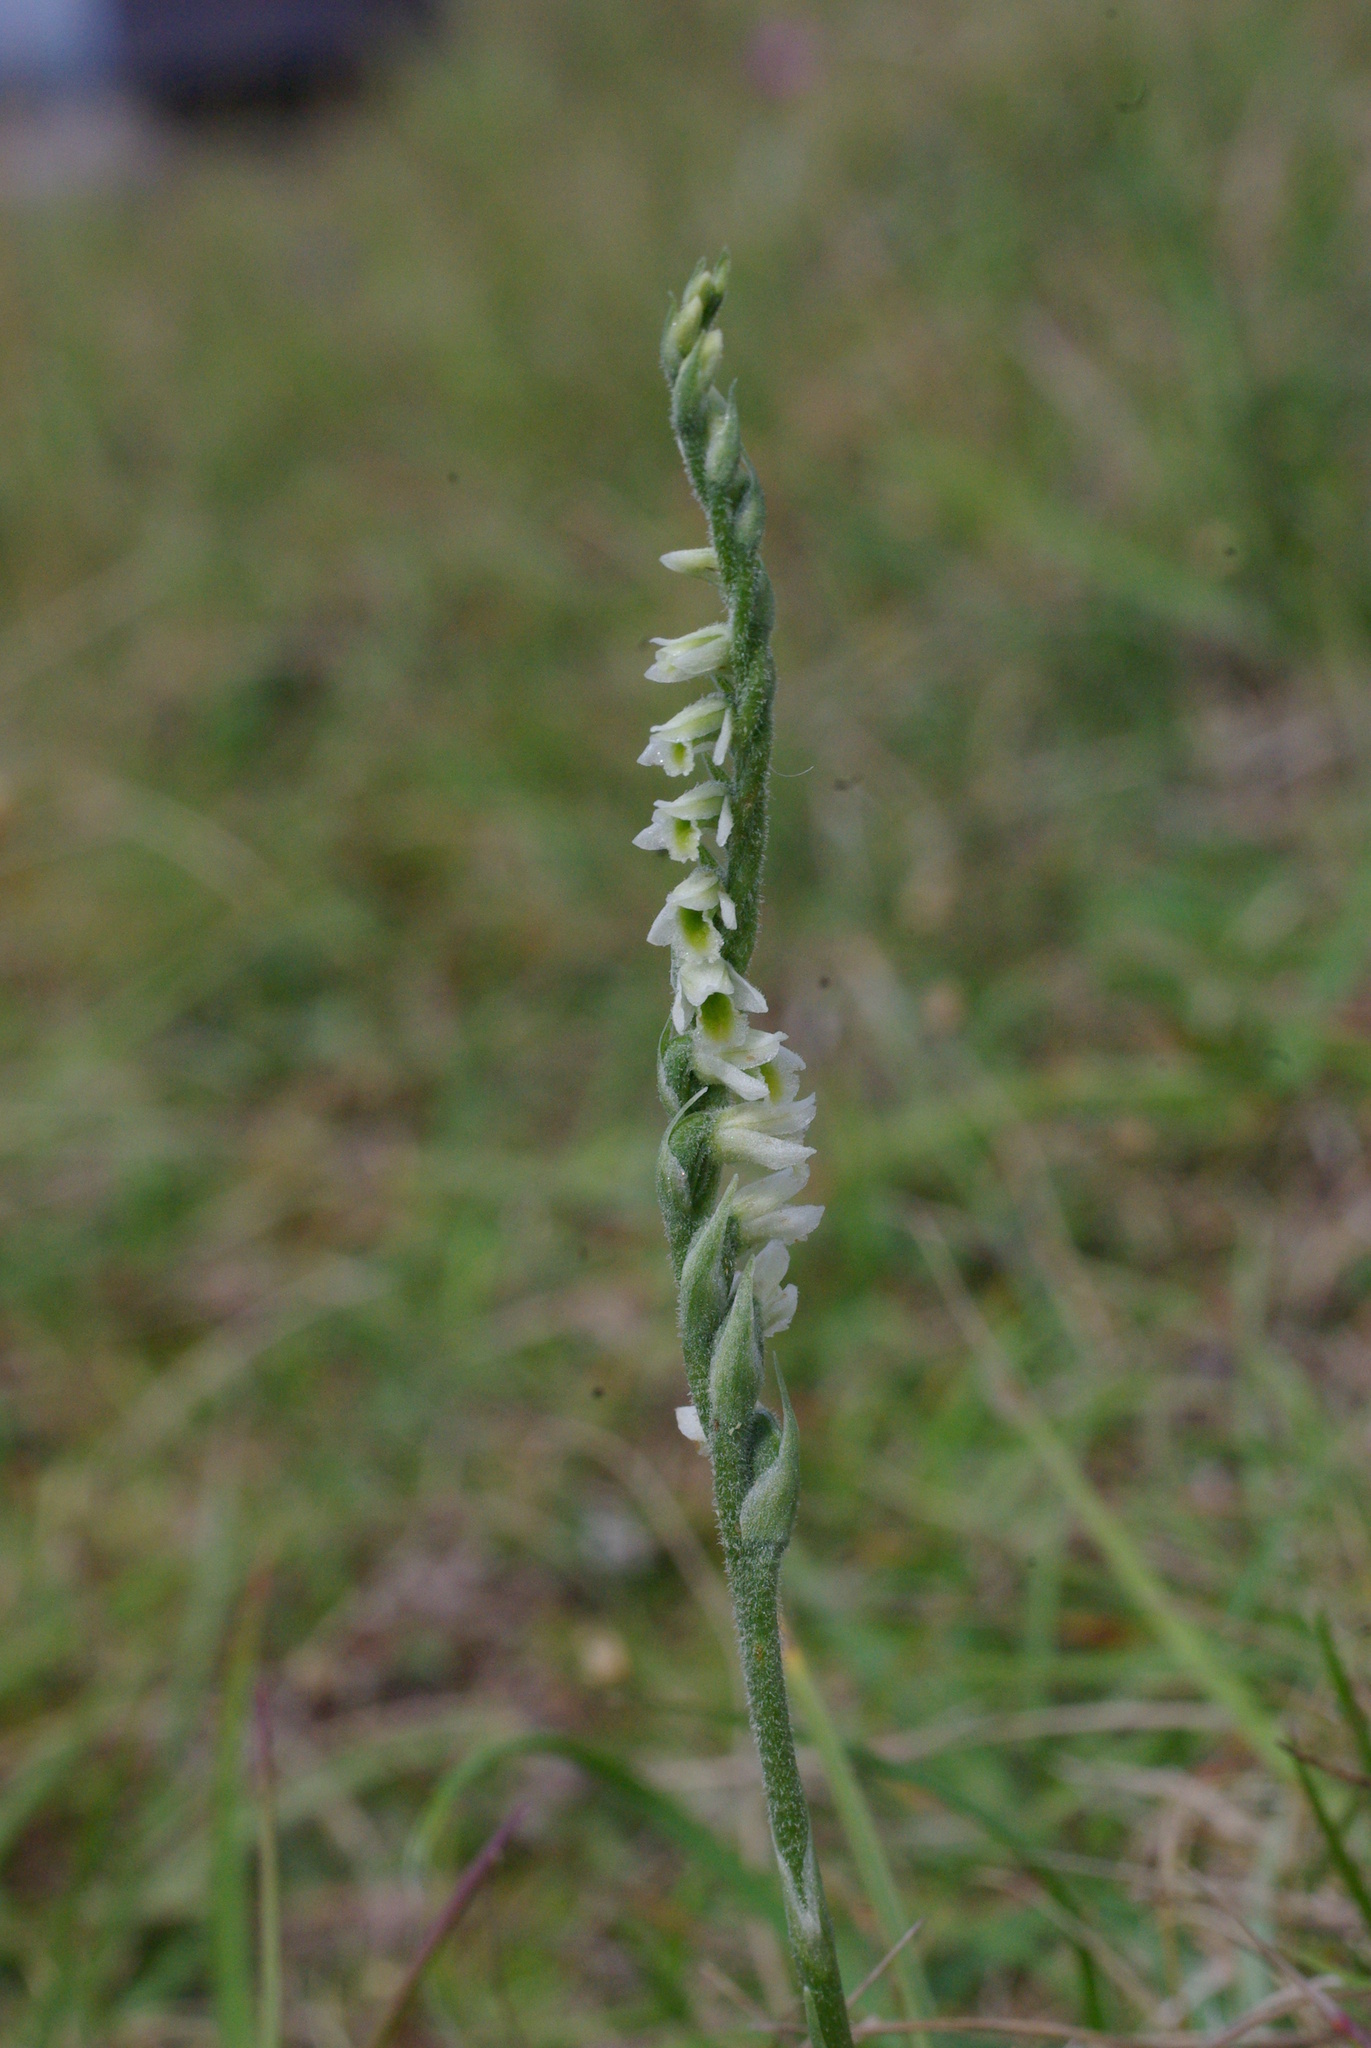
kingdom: Plantae
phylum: Tracheophyta
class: Liliopsida
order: Asparagales
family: Orchidaceae
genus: Spiranthes
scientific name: Spiranthes spiralis
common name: Autumn lady's-tresses
